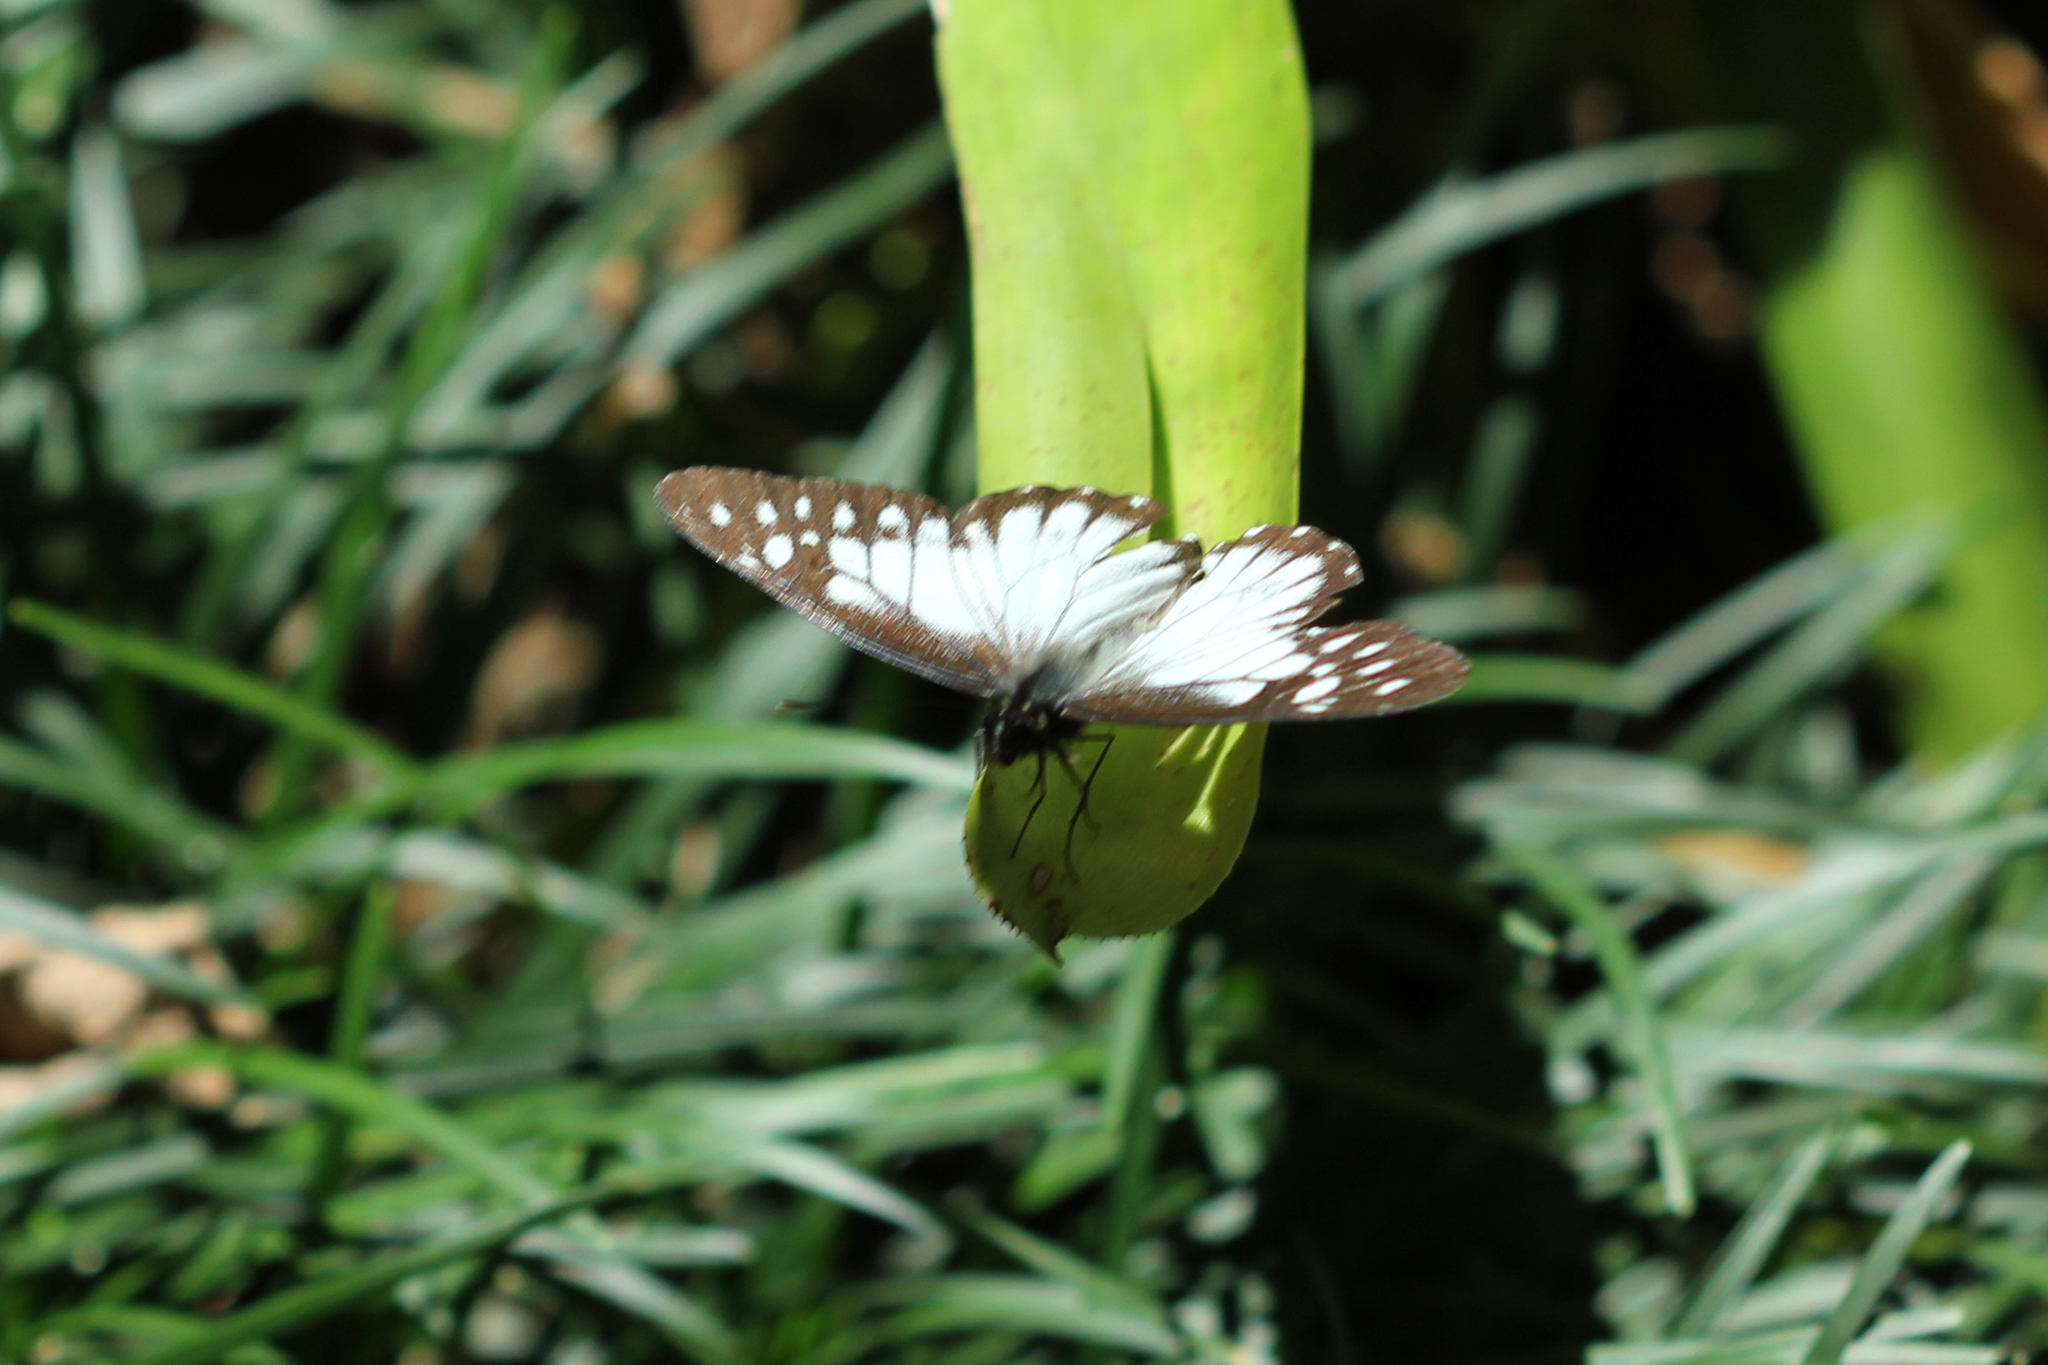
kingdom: Animalia
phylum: Arthropoda
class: Insecta
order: Lepidoptera
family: Pieridae
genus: Archonias
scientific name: Archonias hegemon
